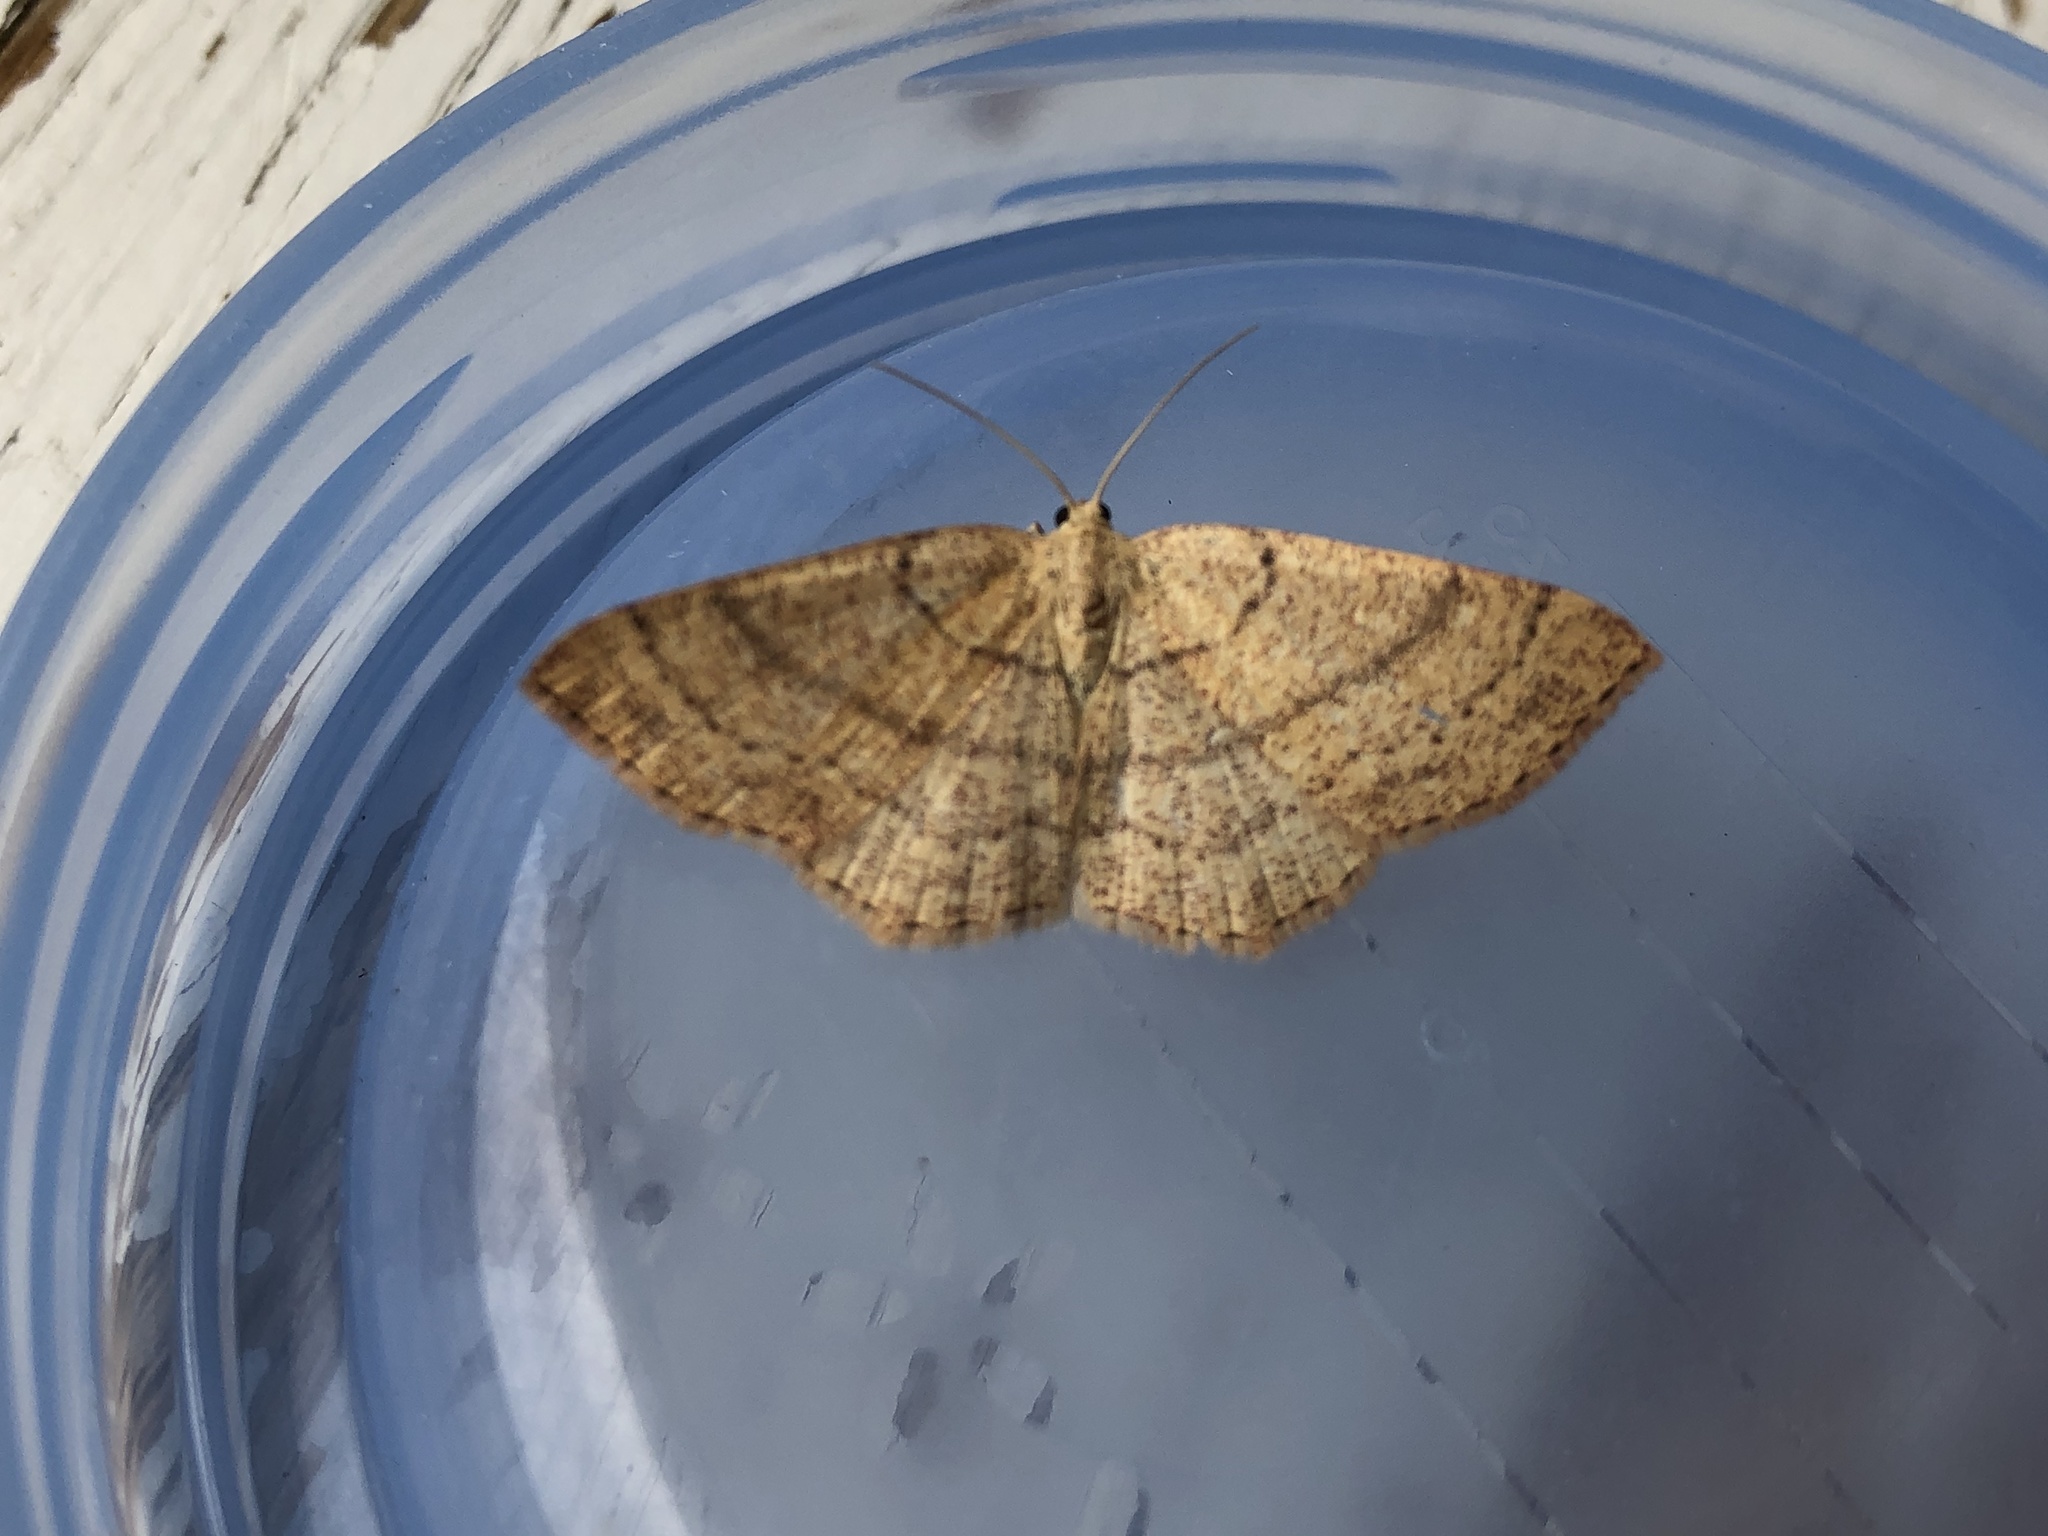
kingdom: Animalia
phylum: Arthropoda
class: Insecta
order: Lepidoptera
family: Geometridae
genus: Cyclophora
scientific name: Cyclophora linearia
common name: Clay triple-lines
